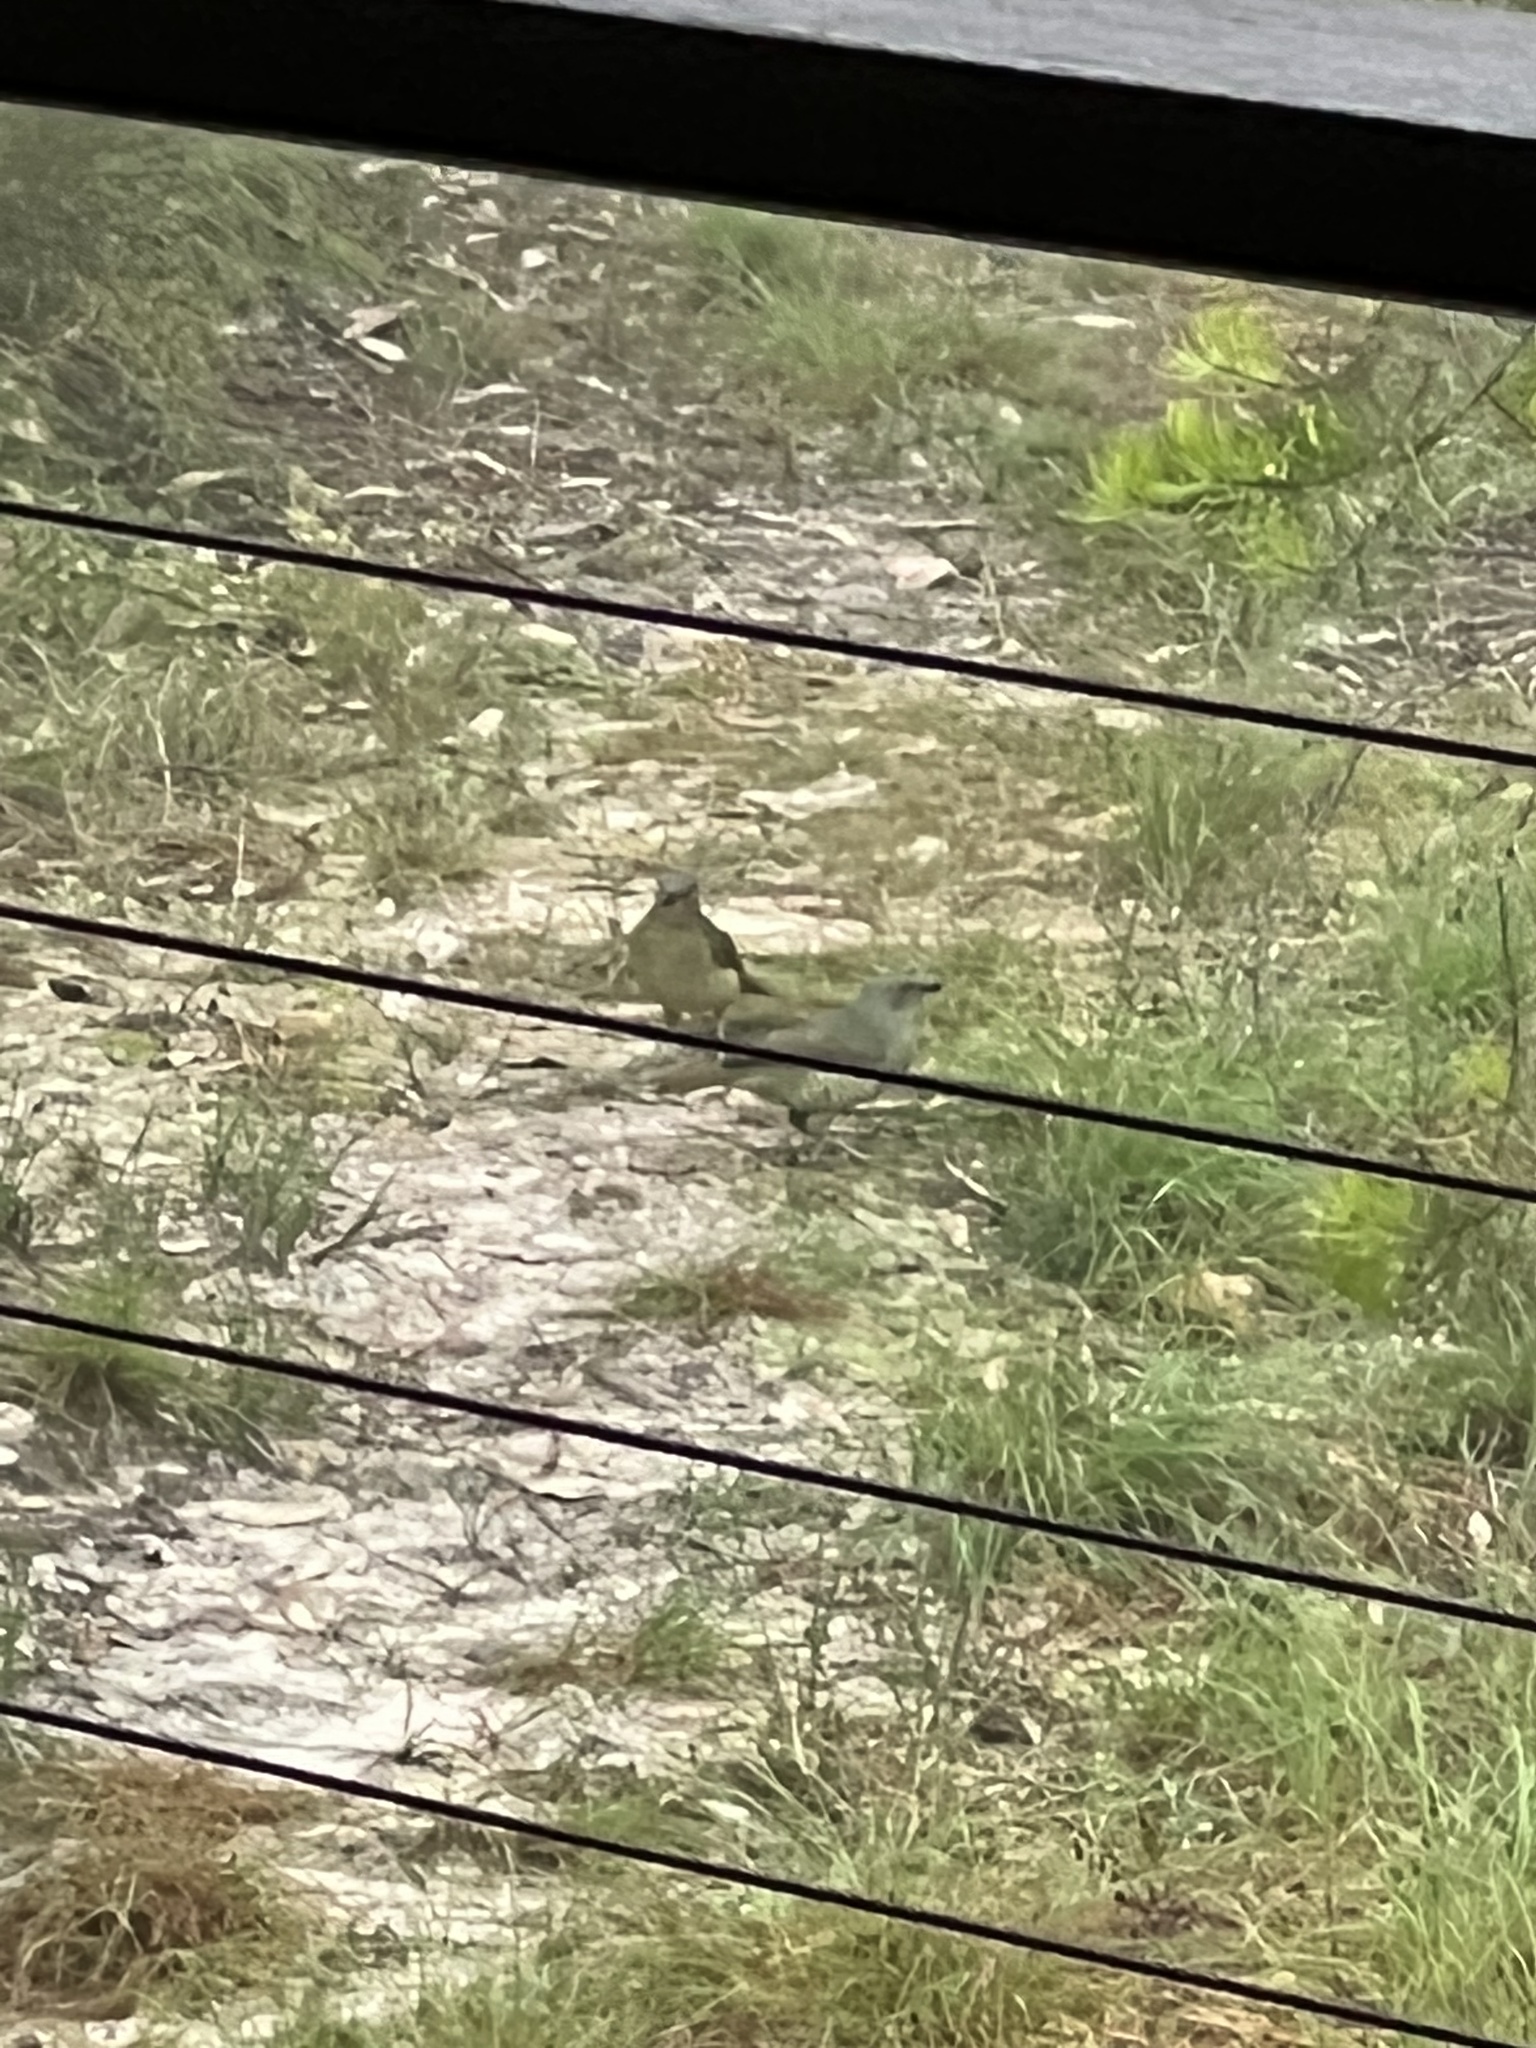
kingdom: Animalia
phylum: Chordata
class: Aves
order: Passeriformes
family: Ptilonorhynchidae
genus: Ptilonorhynchus
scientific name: Ptilonorhynchus violaceus
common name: Satin bowerbird
